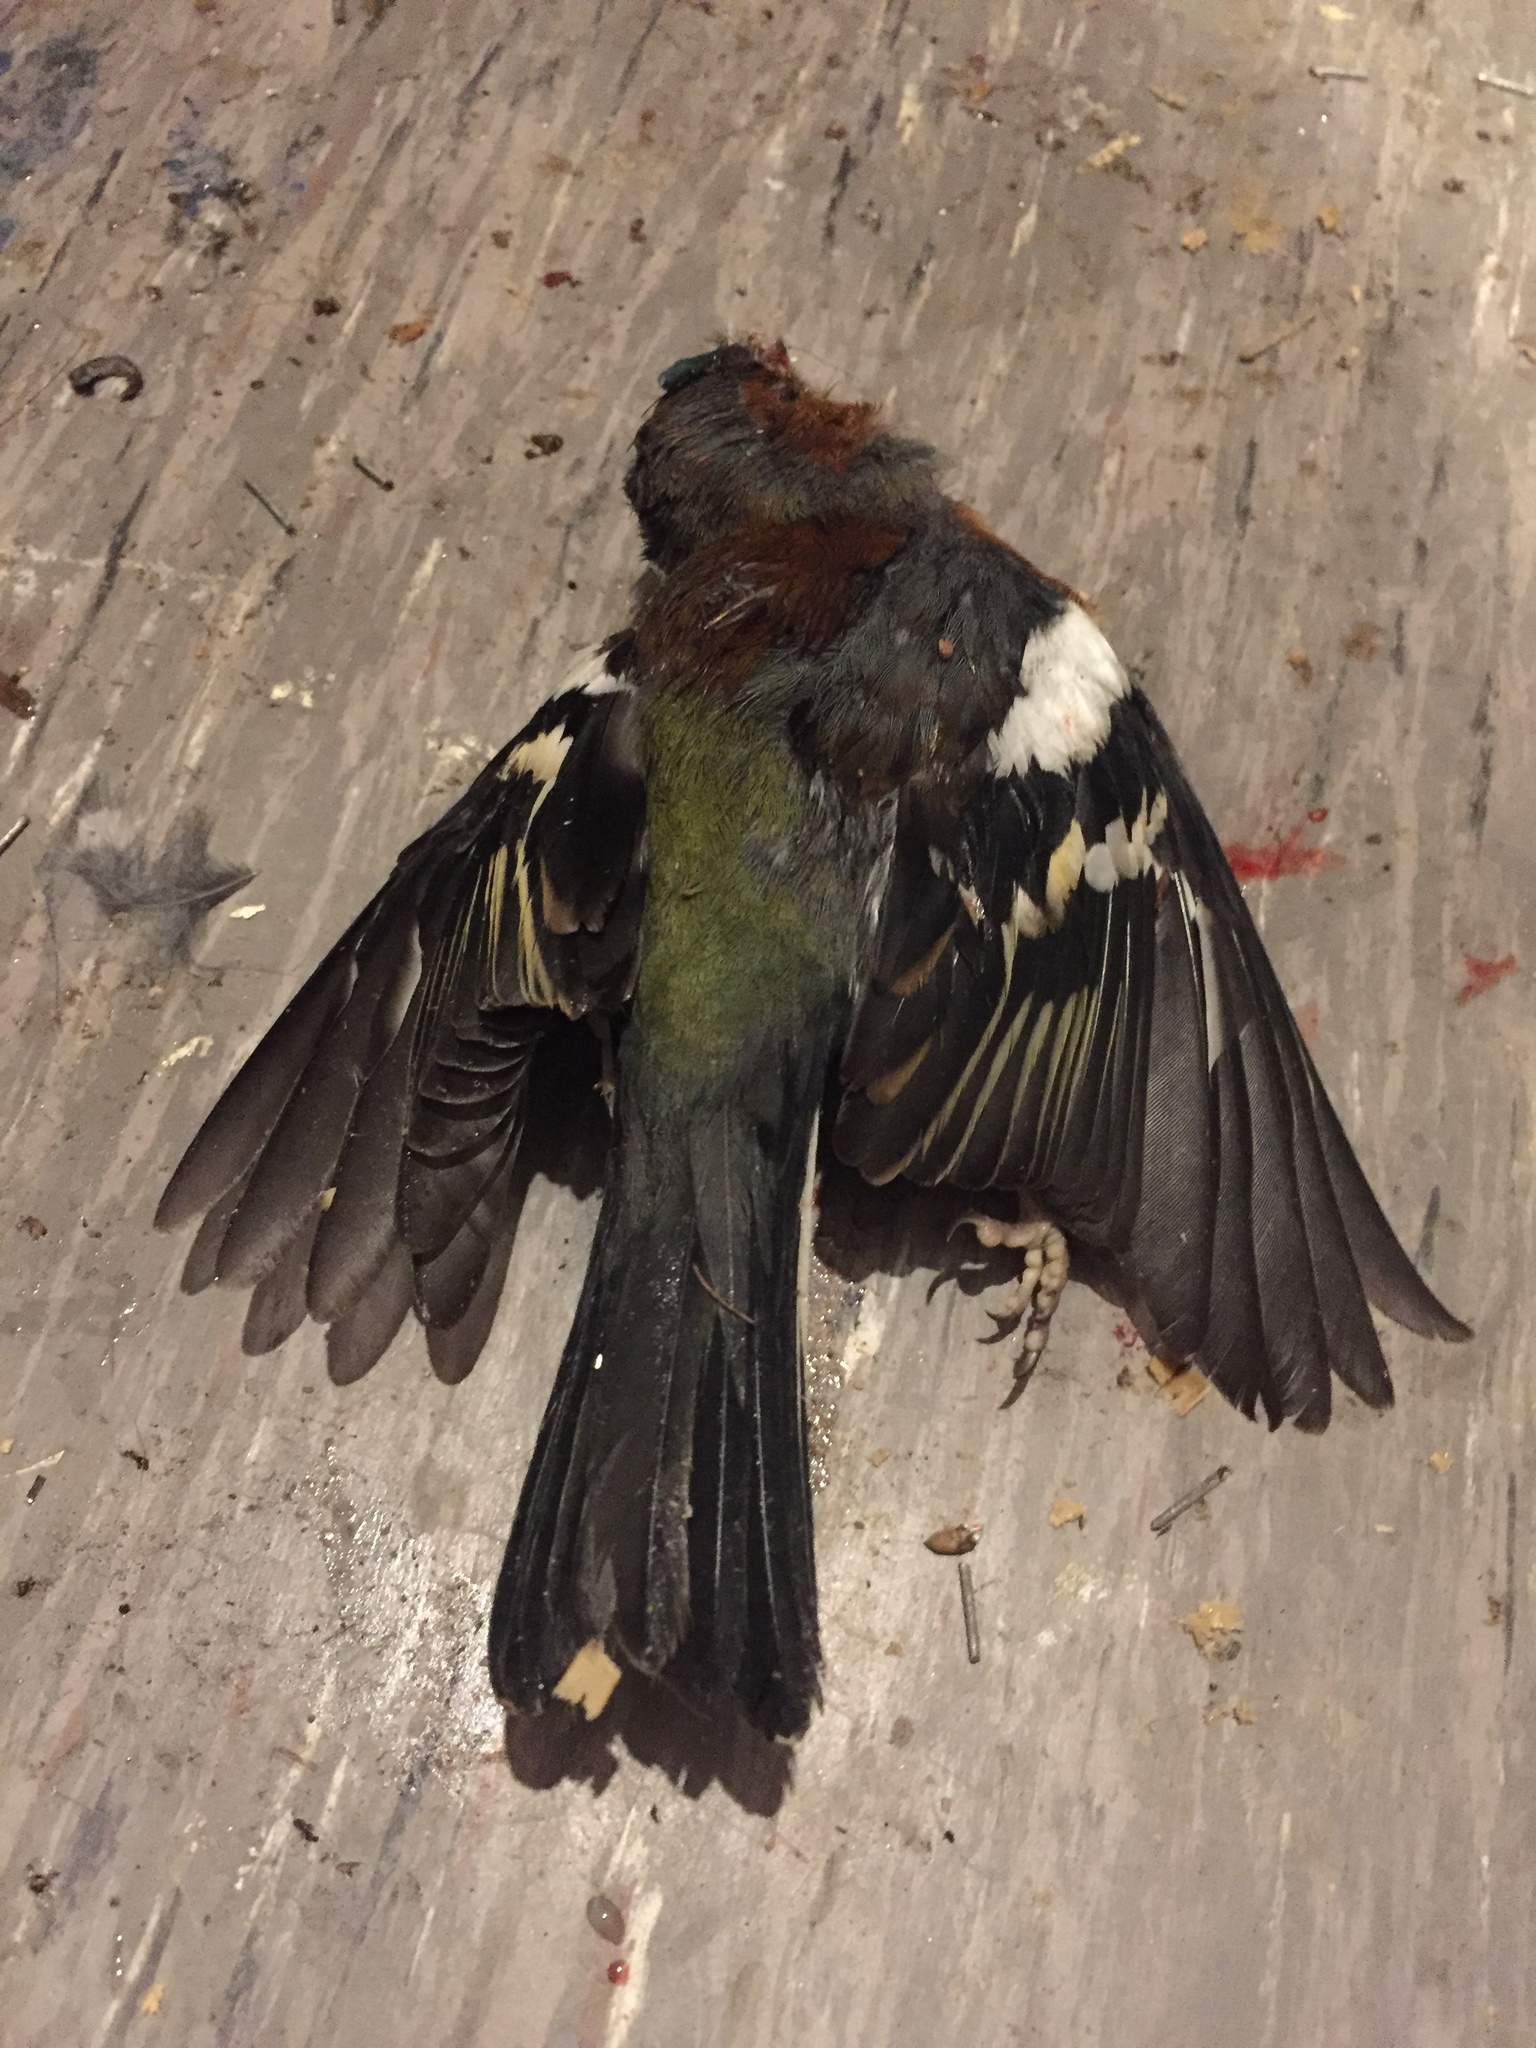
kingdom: Animalia
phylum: Chordata
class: Aves
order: Passeriformes
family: Fringillidae
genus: Fringilla
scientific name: Fringilla coelebs
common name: Common chaffinch
